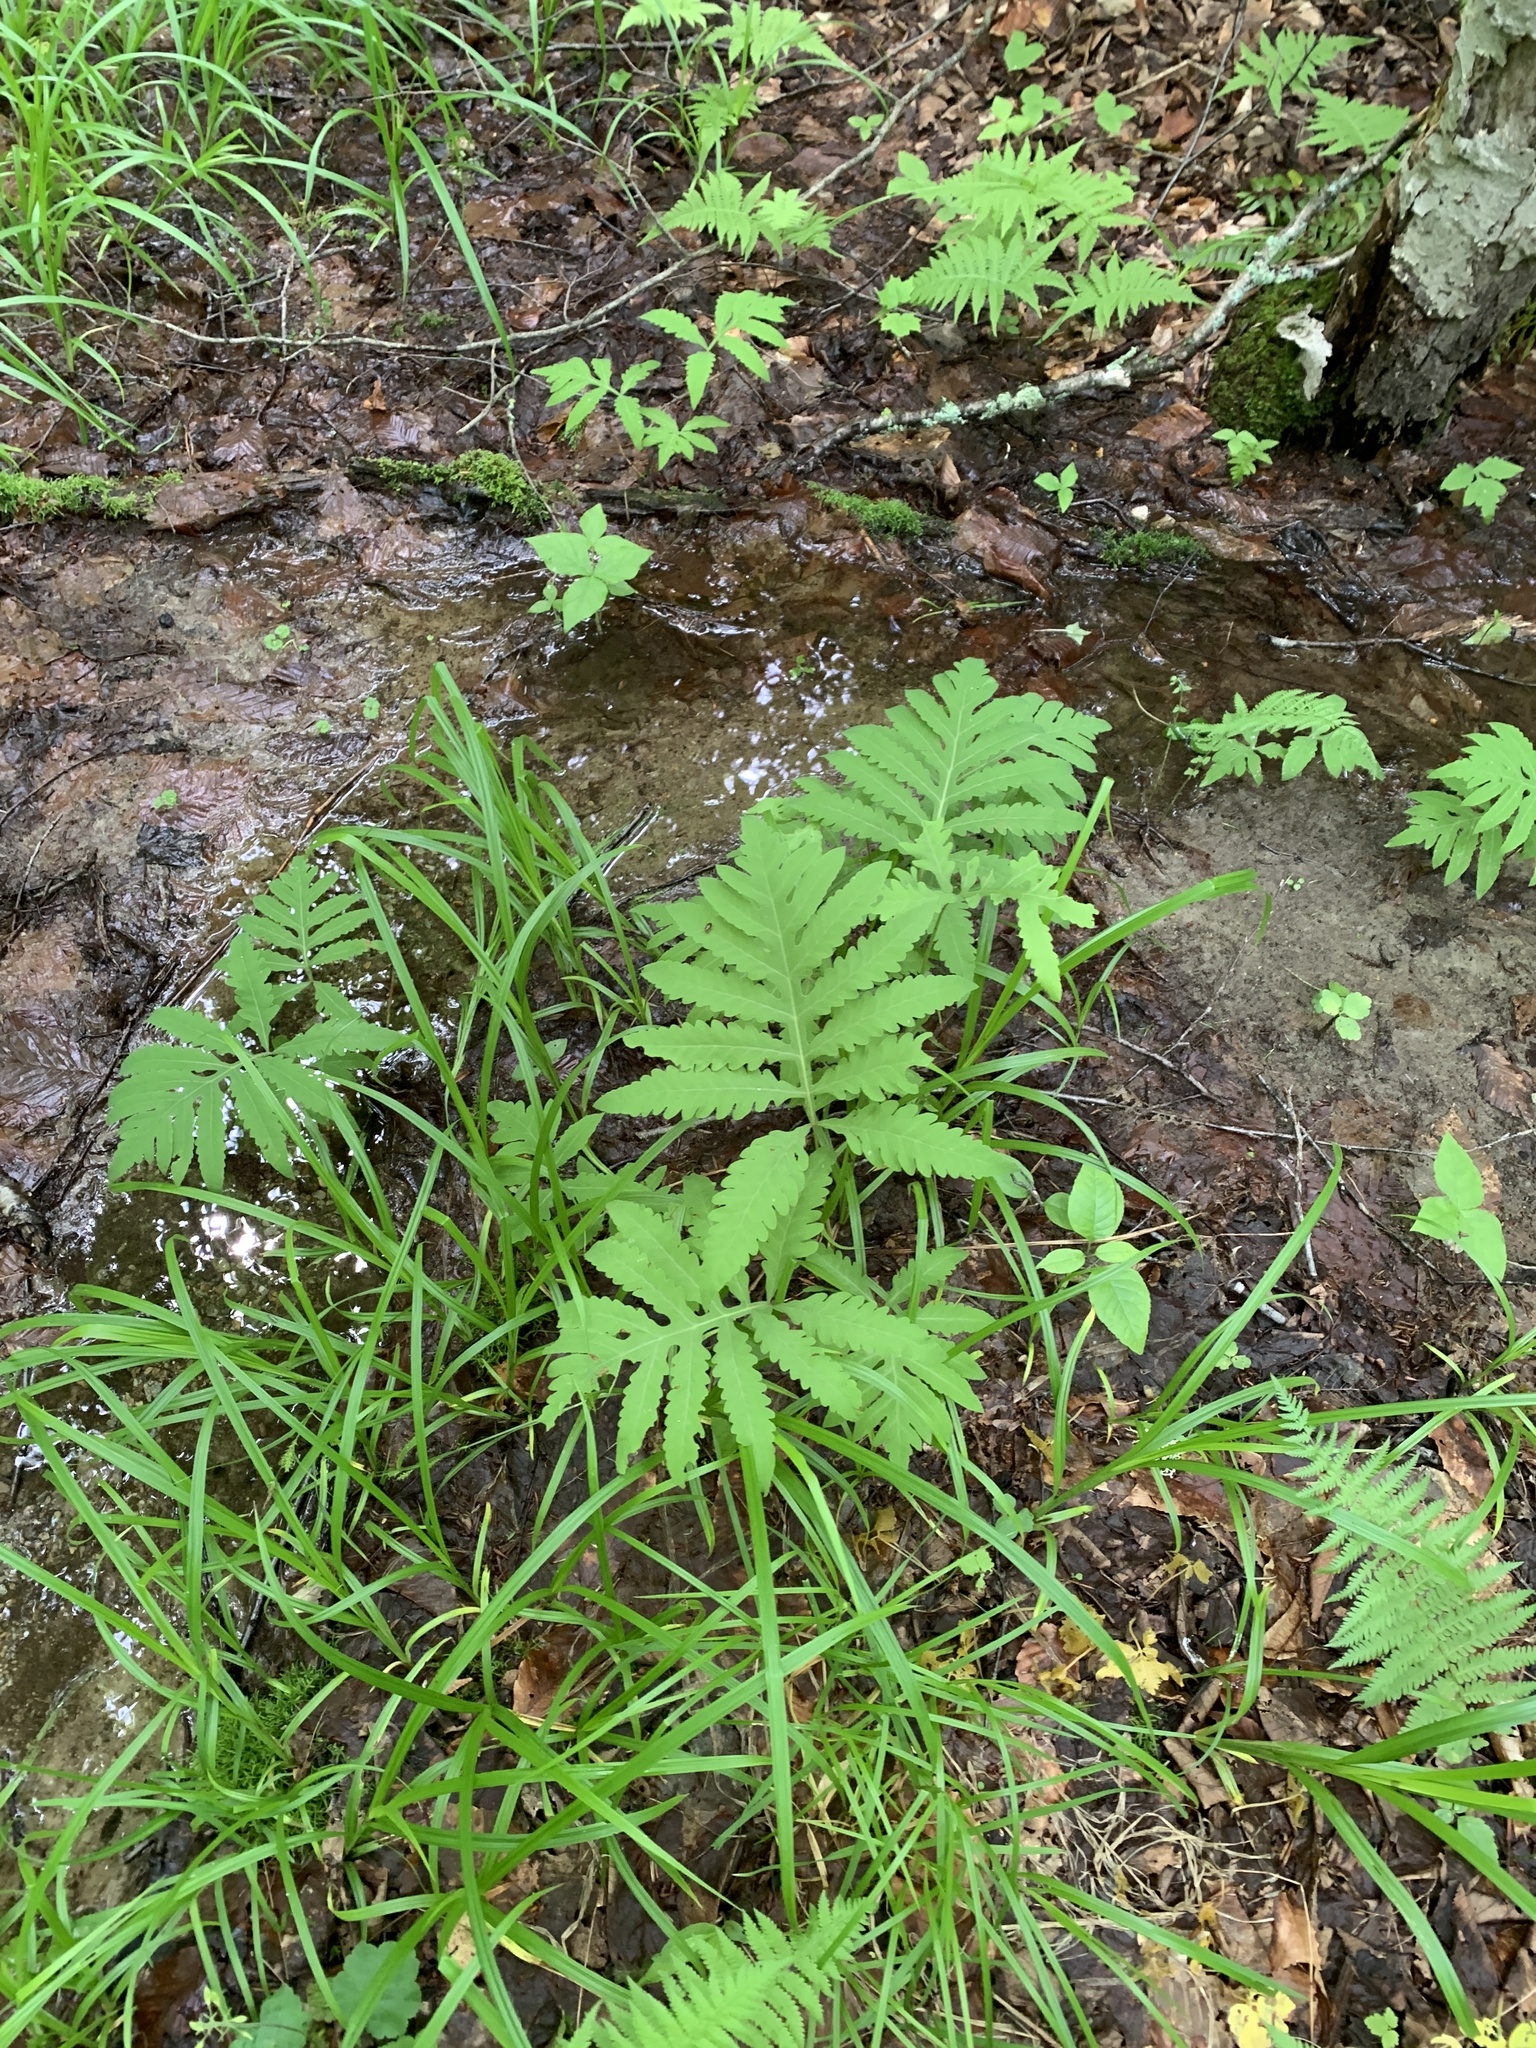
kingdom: Plantae
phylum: Tracheophyta
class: Polypodiopsida
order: Polypodiales
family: Onocleaceae
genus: Onoclea
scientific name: Onoclea sensibilis
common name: Sensitive fern
